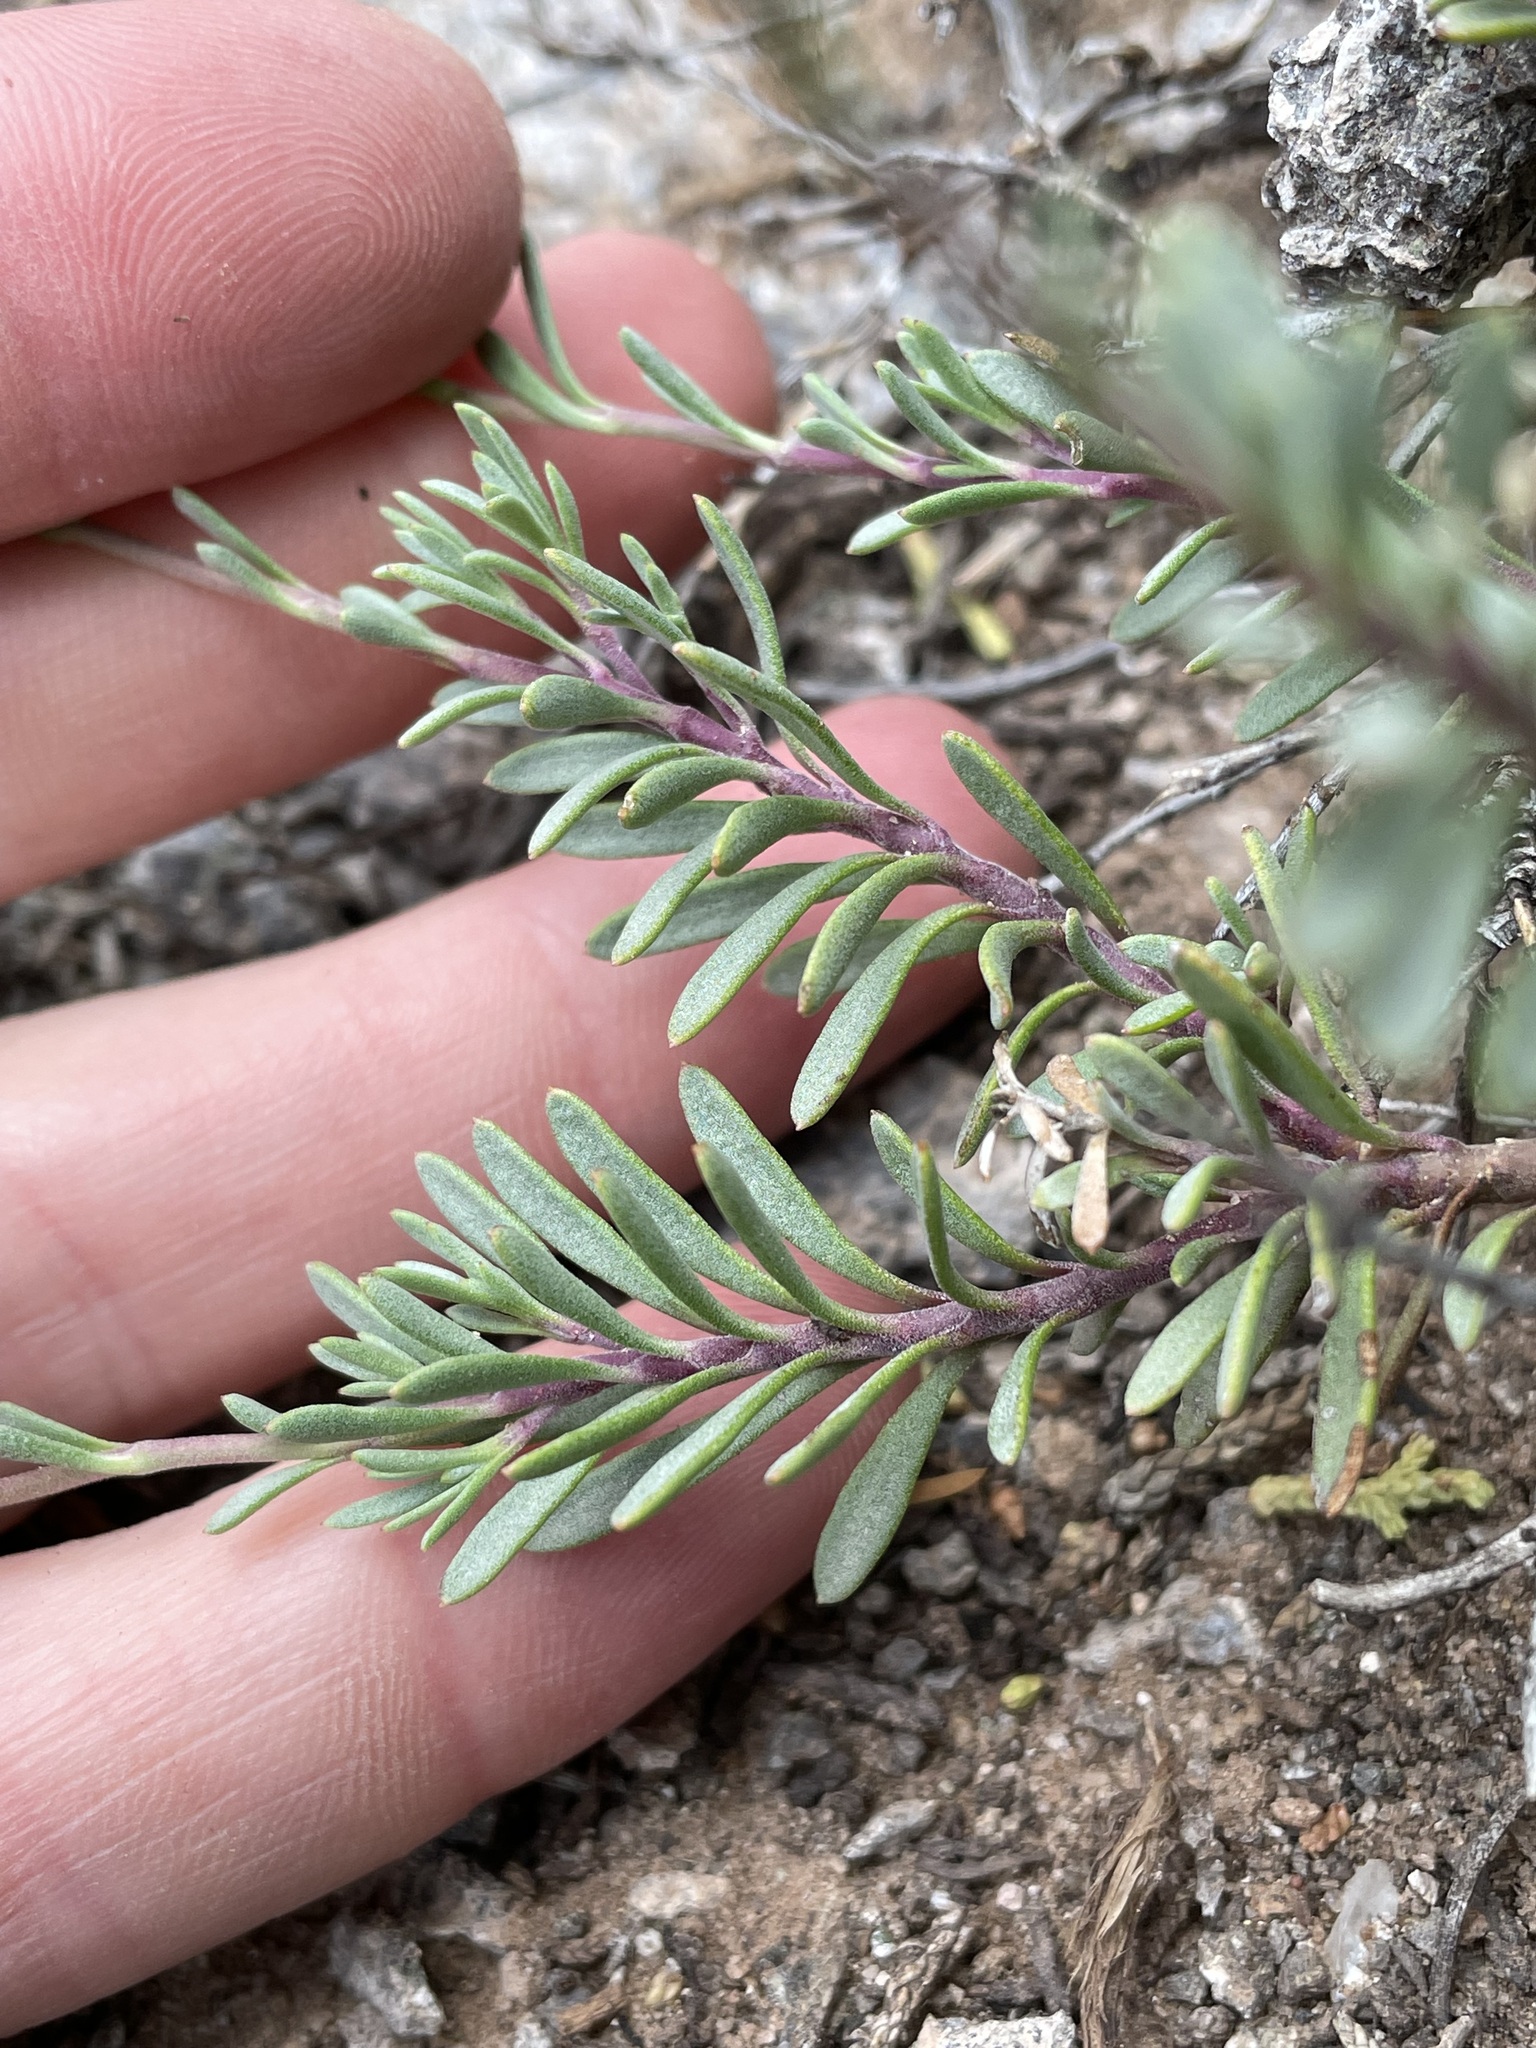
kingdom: Plantae
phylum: Tracheophyta
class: Magnoliopsida
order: Lamiales
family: Plantaginaceae
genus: Penstemon
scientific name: Penstemon linarioides
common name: Siler's penstemon
